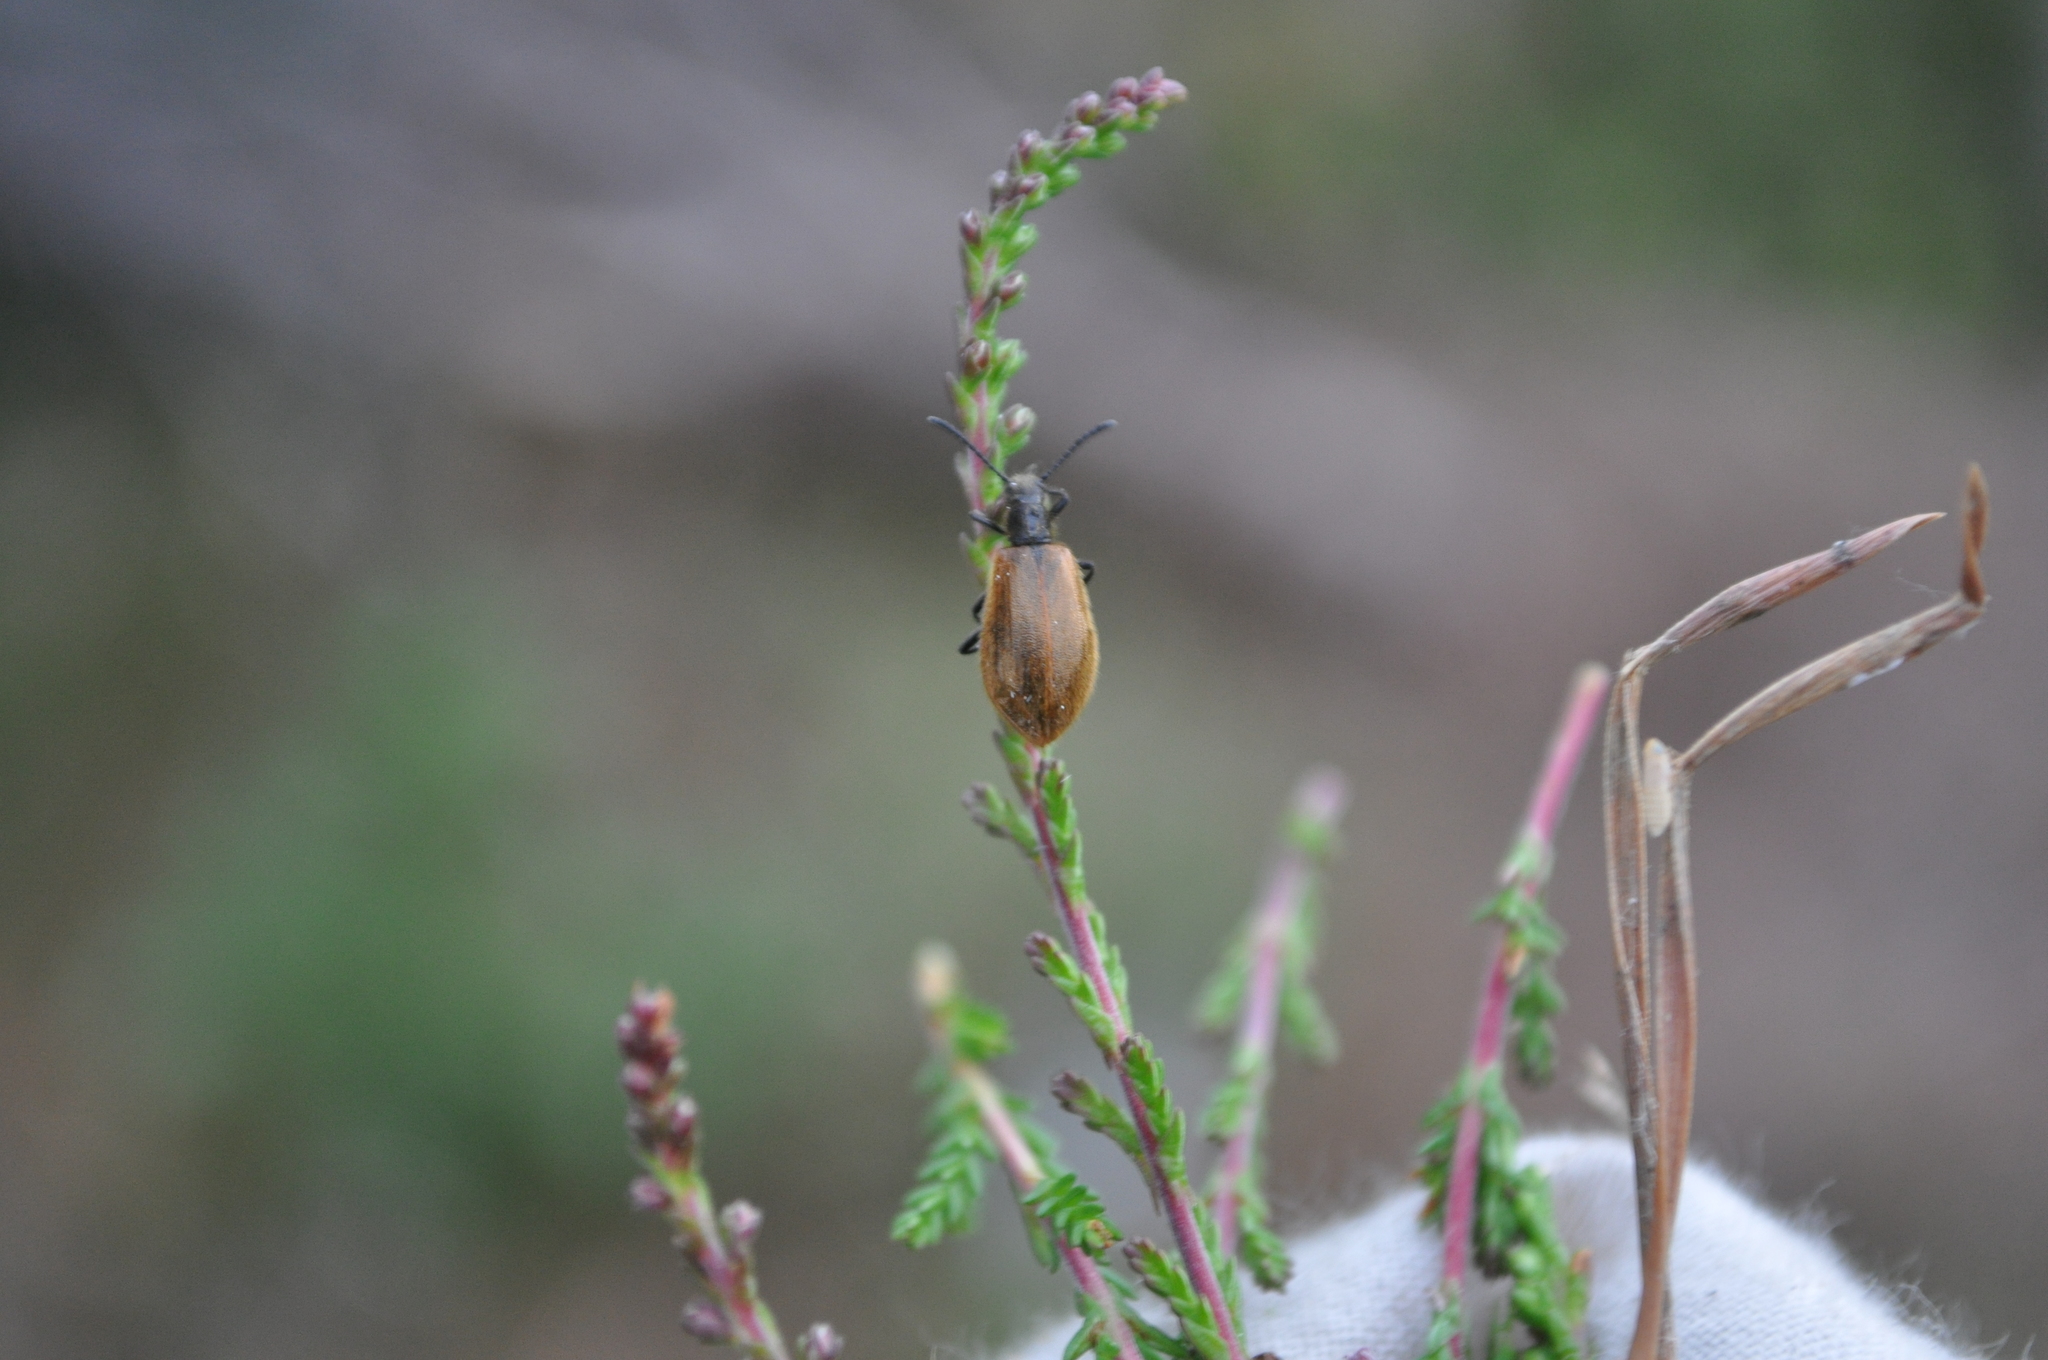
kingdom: Animalia
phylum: Arthropoda
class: Insecta
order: Coleoptera
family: Tenebrionidae
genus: Lagria
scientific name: Lagria hirta
